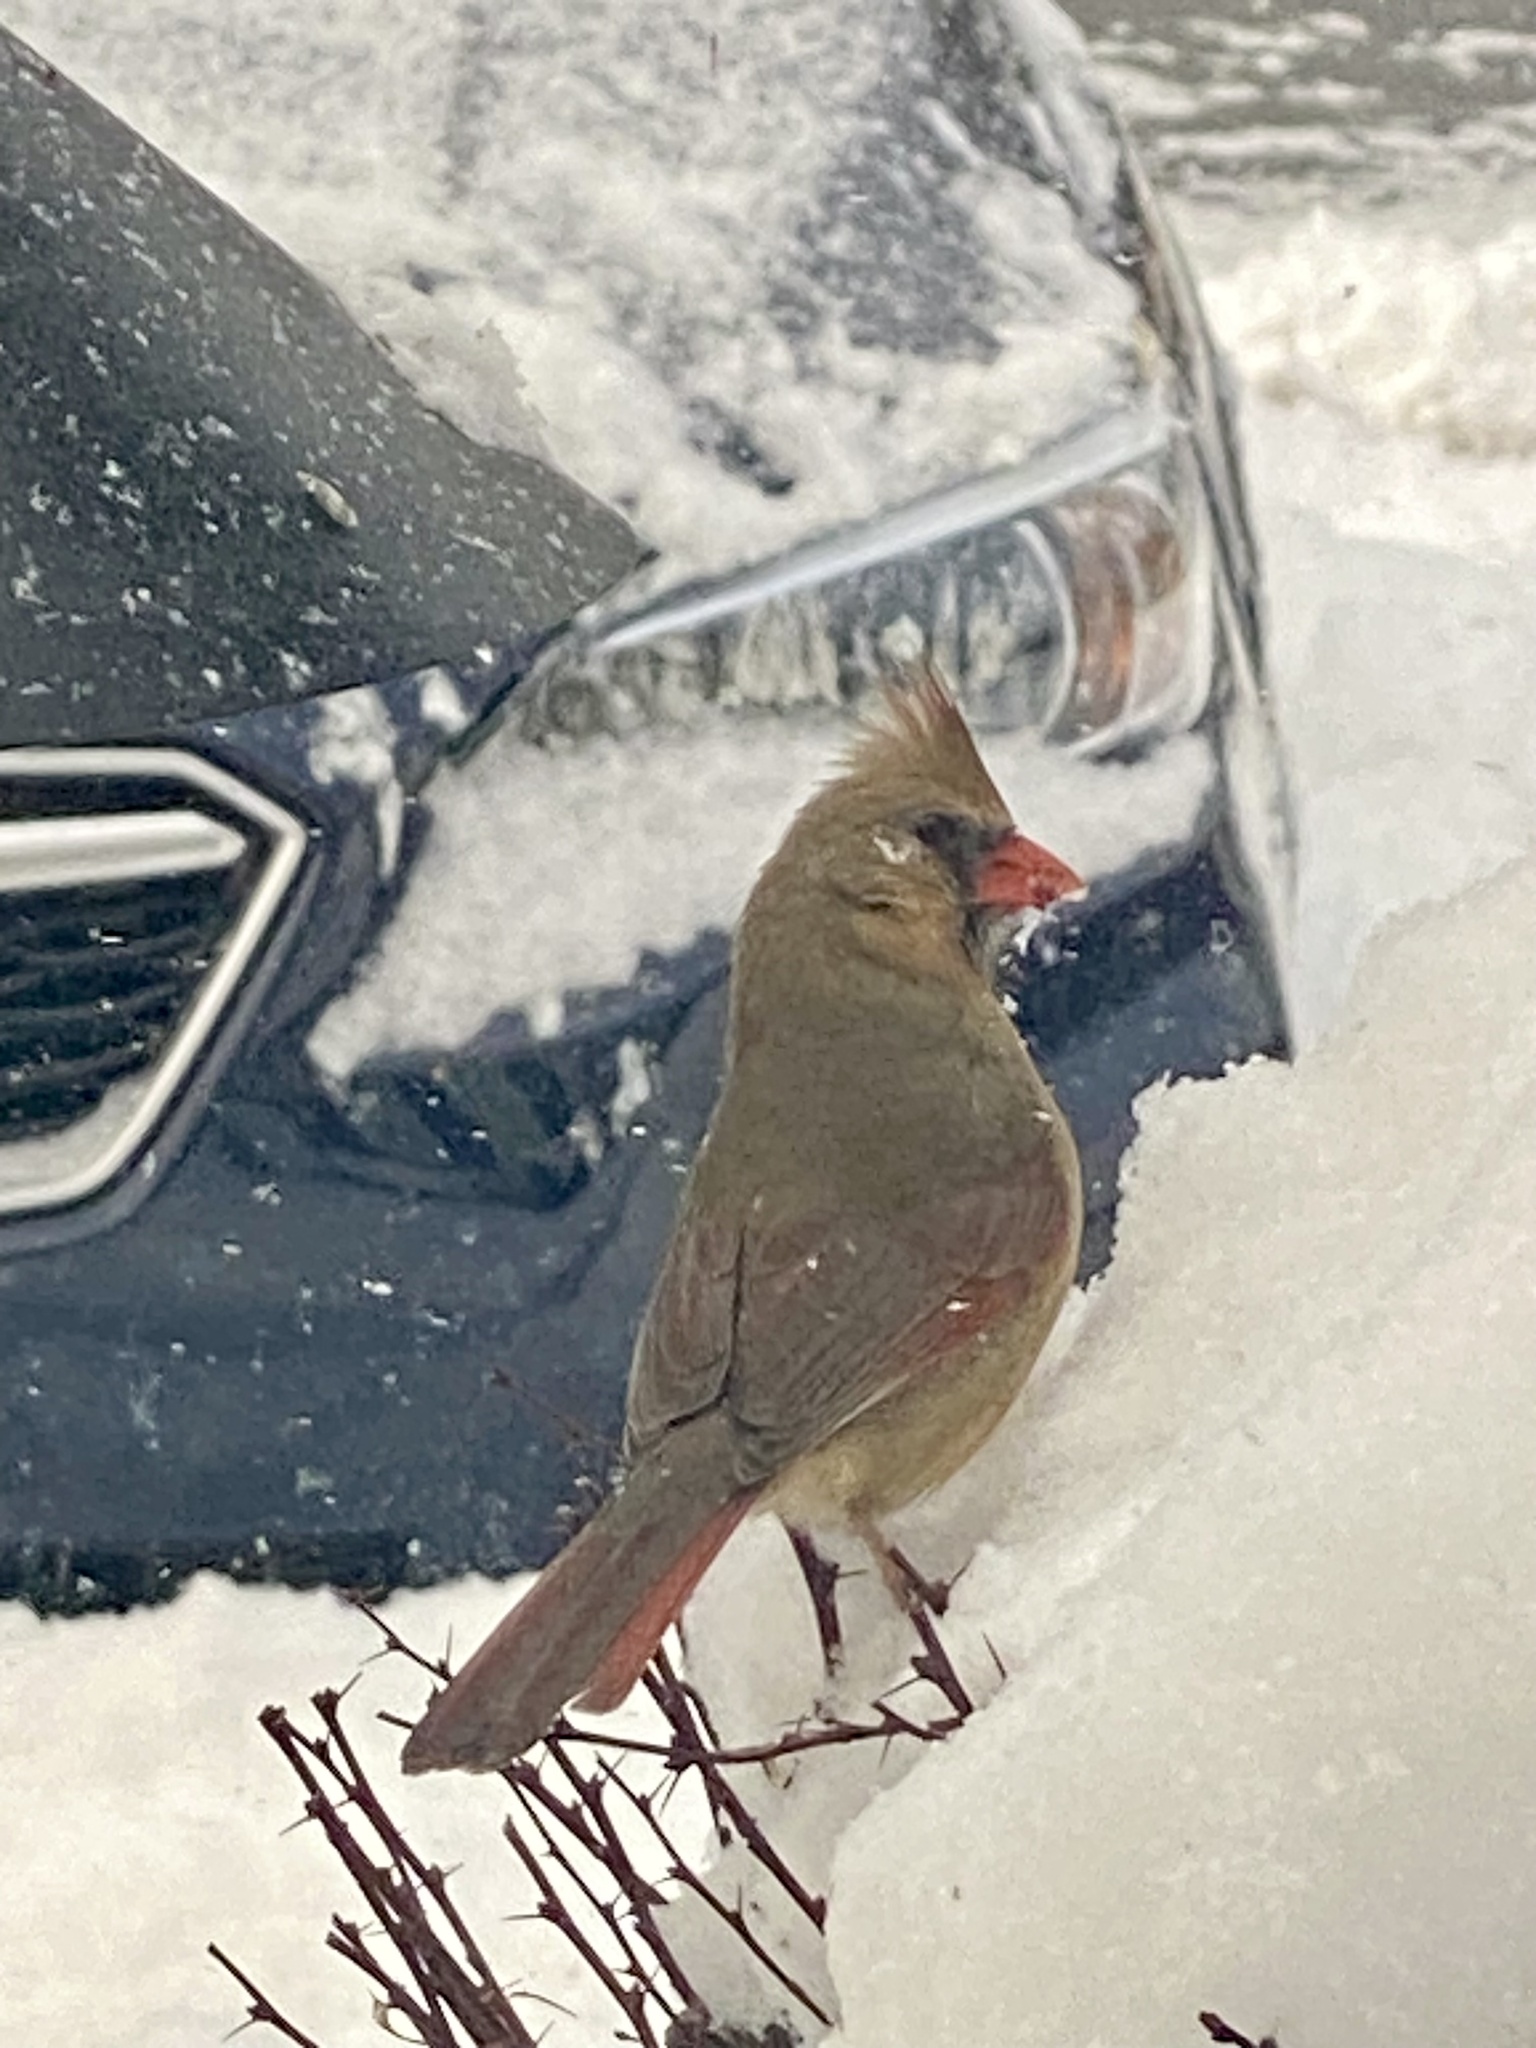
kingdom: Animalia
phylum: Chordata
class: Aves
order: Passeriformes
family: Cardinalidae
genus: Cardinalis
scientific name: Cardinalis cardinalis
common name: Northern cardinal
